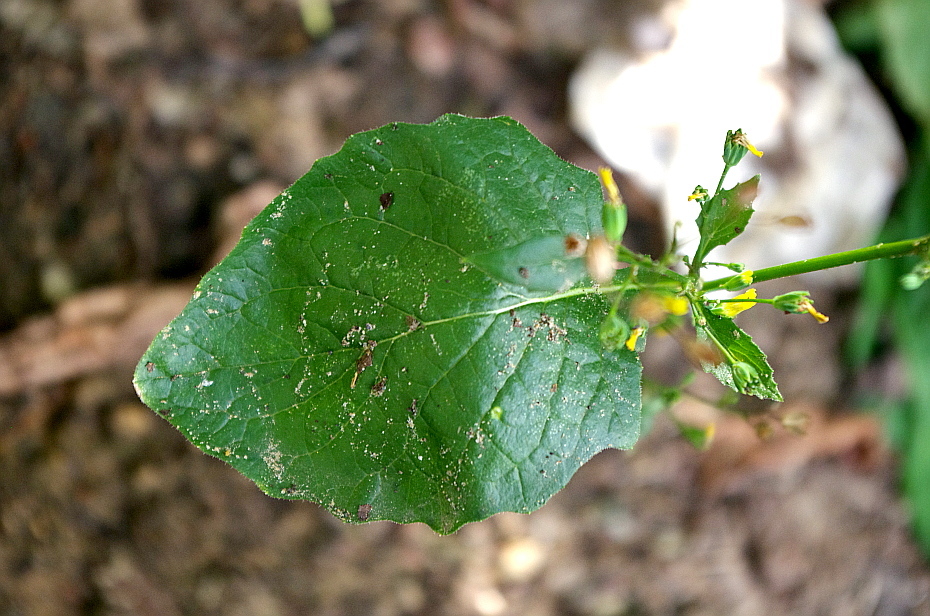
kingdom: Plantae
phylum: Tracheophyta
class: Magnoliopsida
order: Asterales
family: Asteraceae
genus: Lapsana
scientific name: Lapsana communis
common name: Nipplewort
